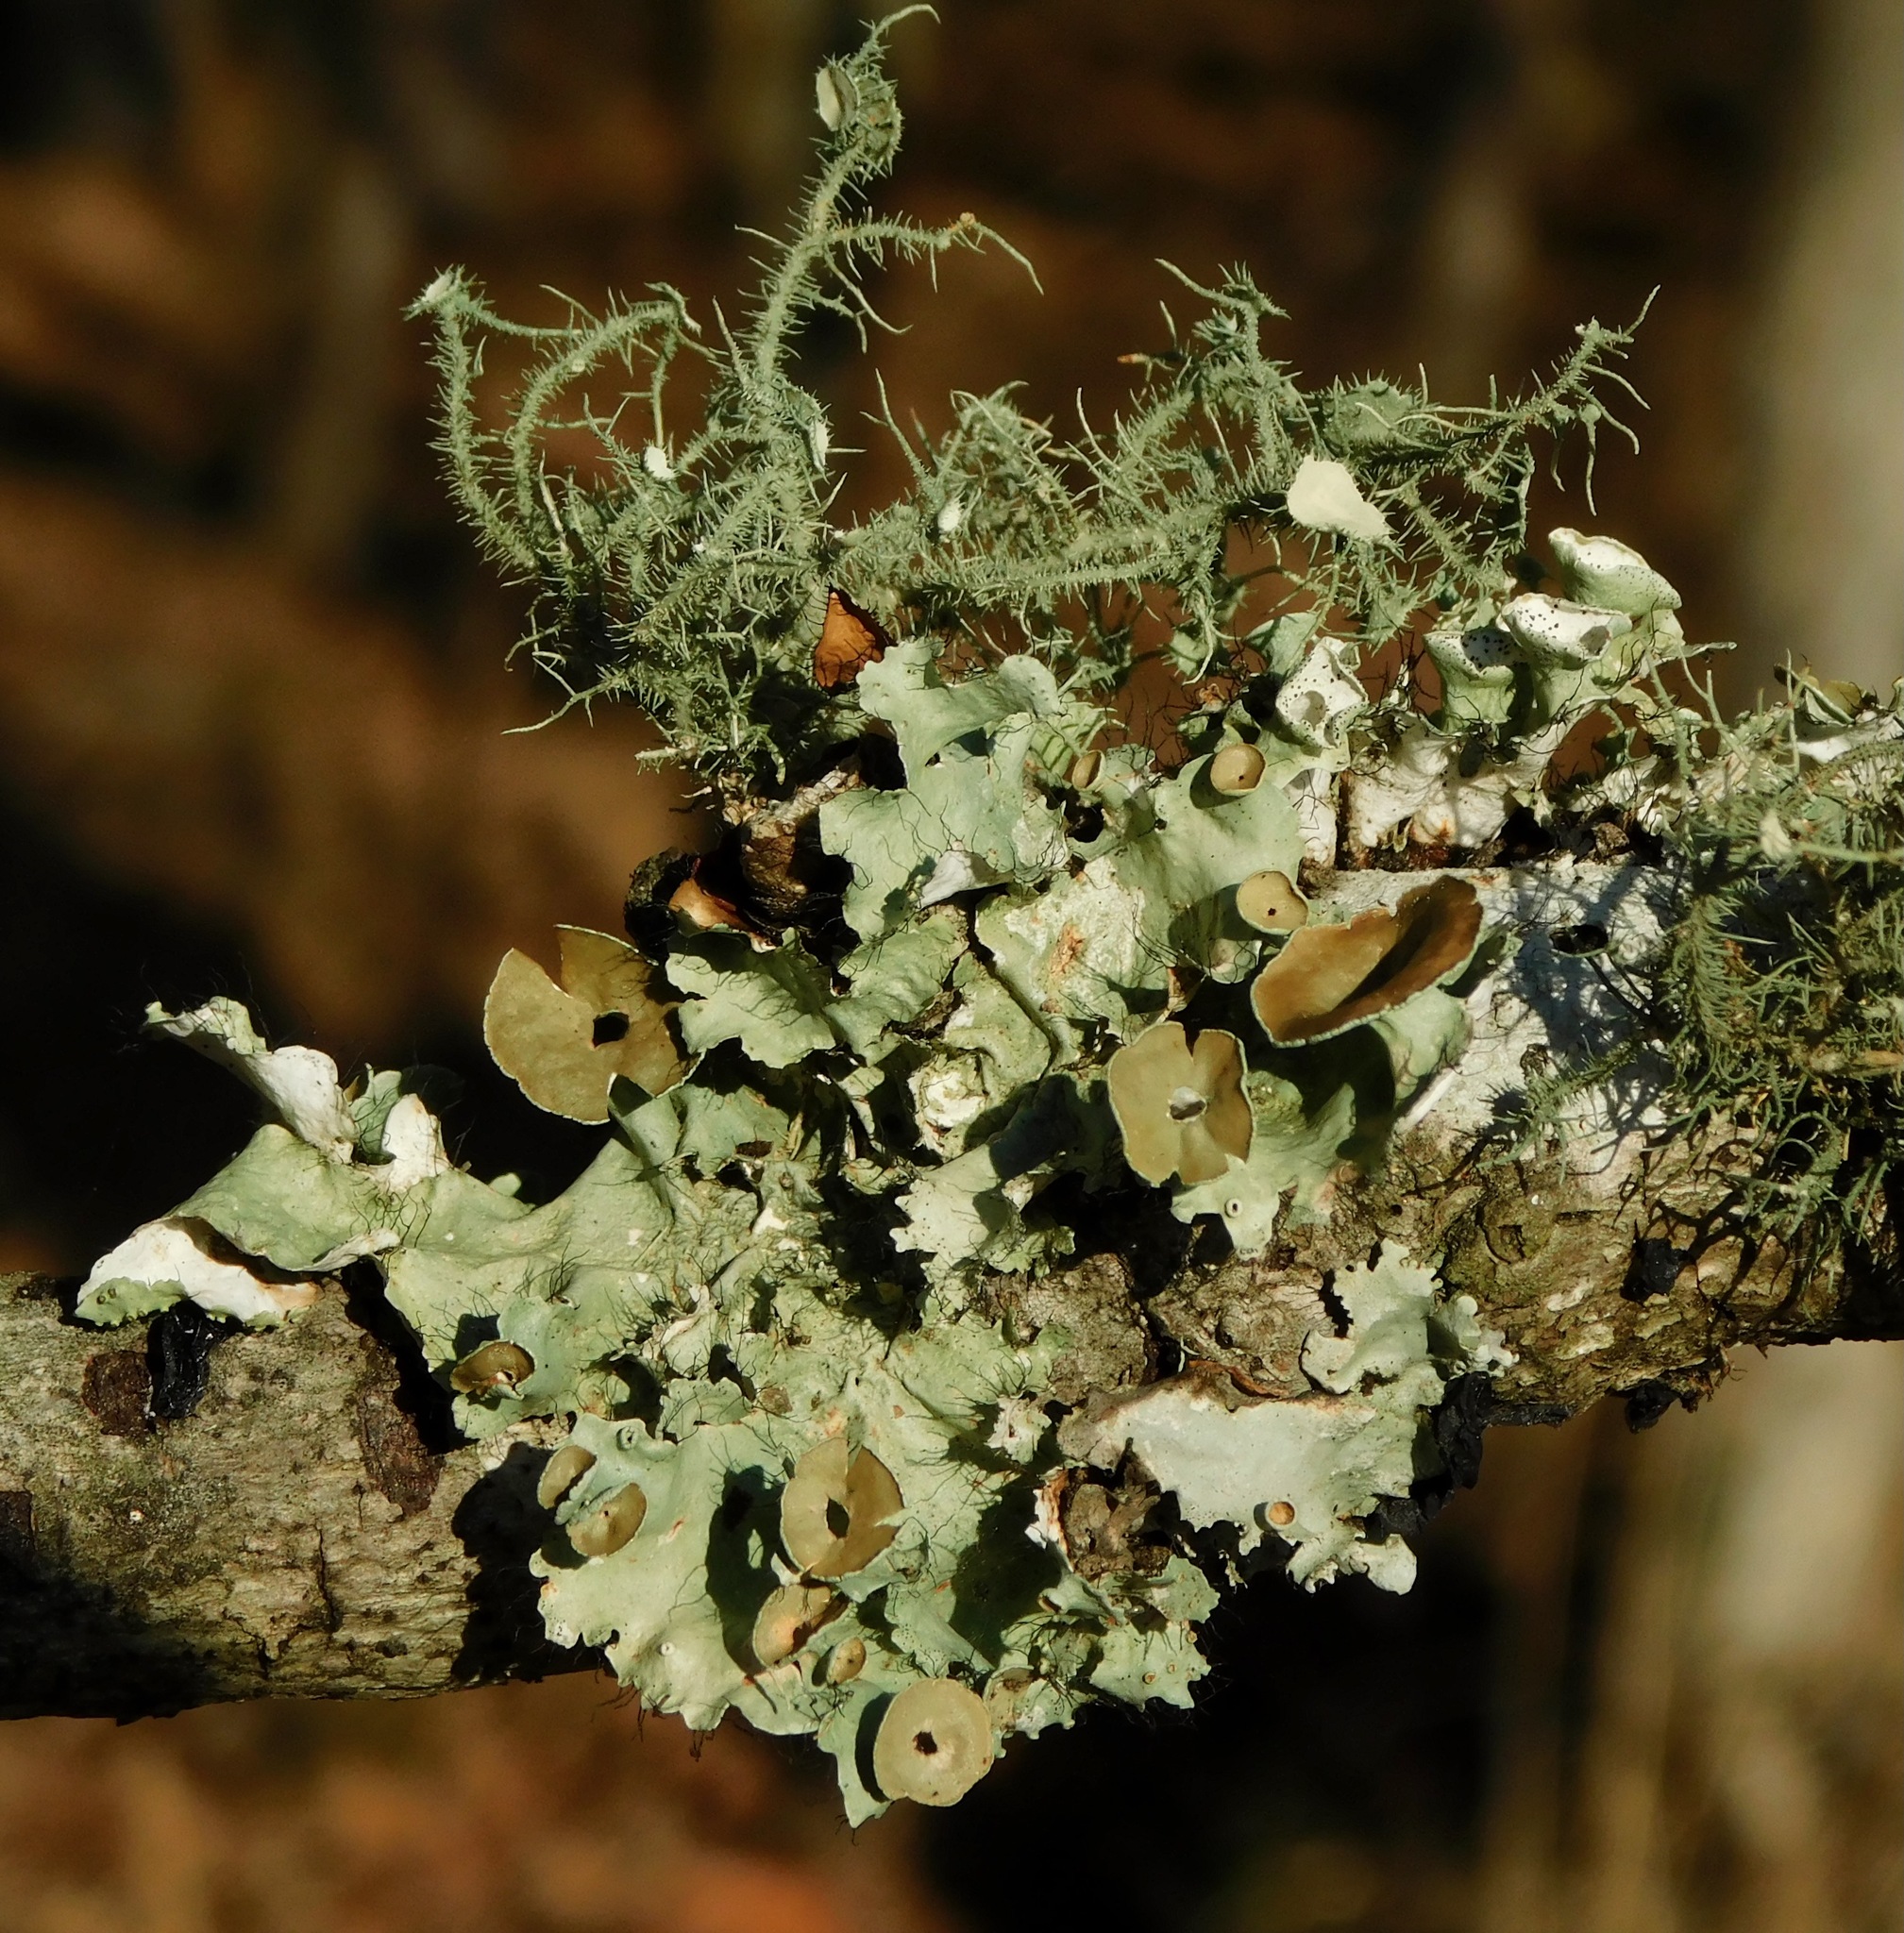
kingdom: Fungi
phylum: Ascomycota
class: Lecanoromycetes
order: Lecanorales
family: Parmeliaceae
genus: Parmotrema
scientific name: Parmotrema subrigidum
